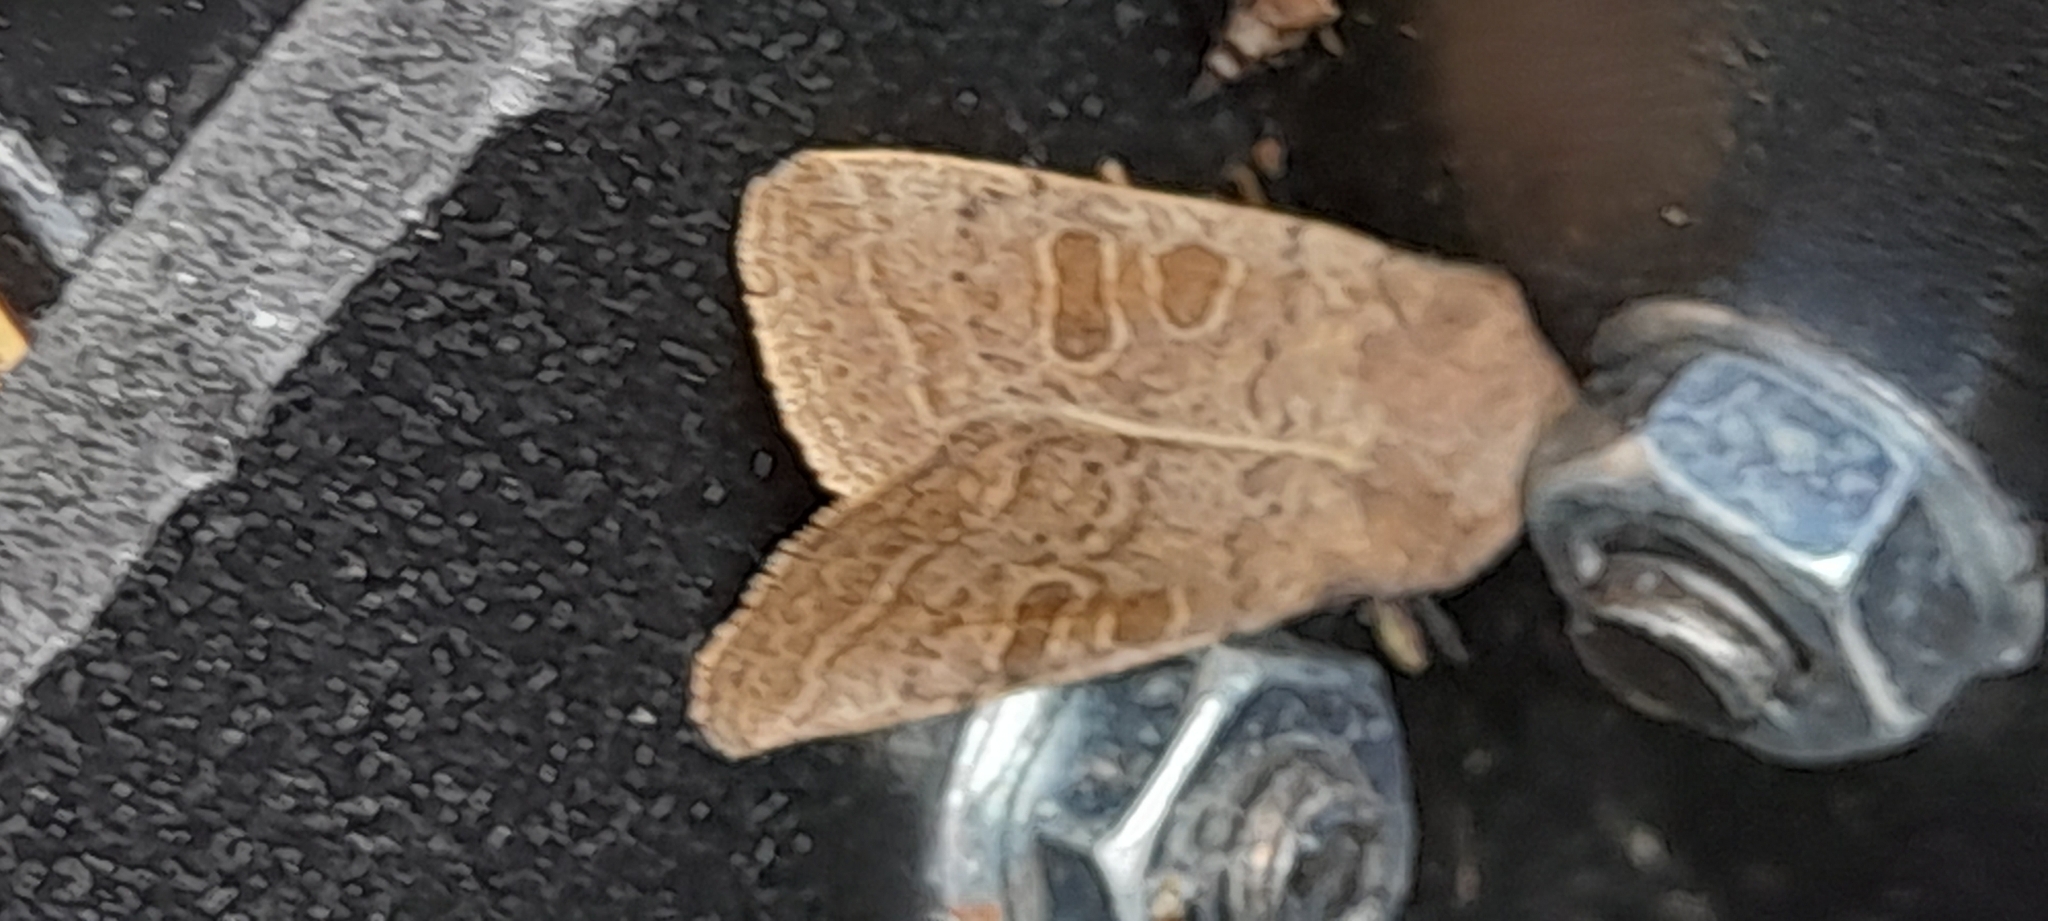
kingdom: Animalia
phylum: Arthropoda
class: Insecta
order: Lepidoptera
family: Noctuidae
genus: Hoplodrina
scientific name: Hoplodrina ambigua
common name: Vine's rustic
